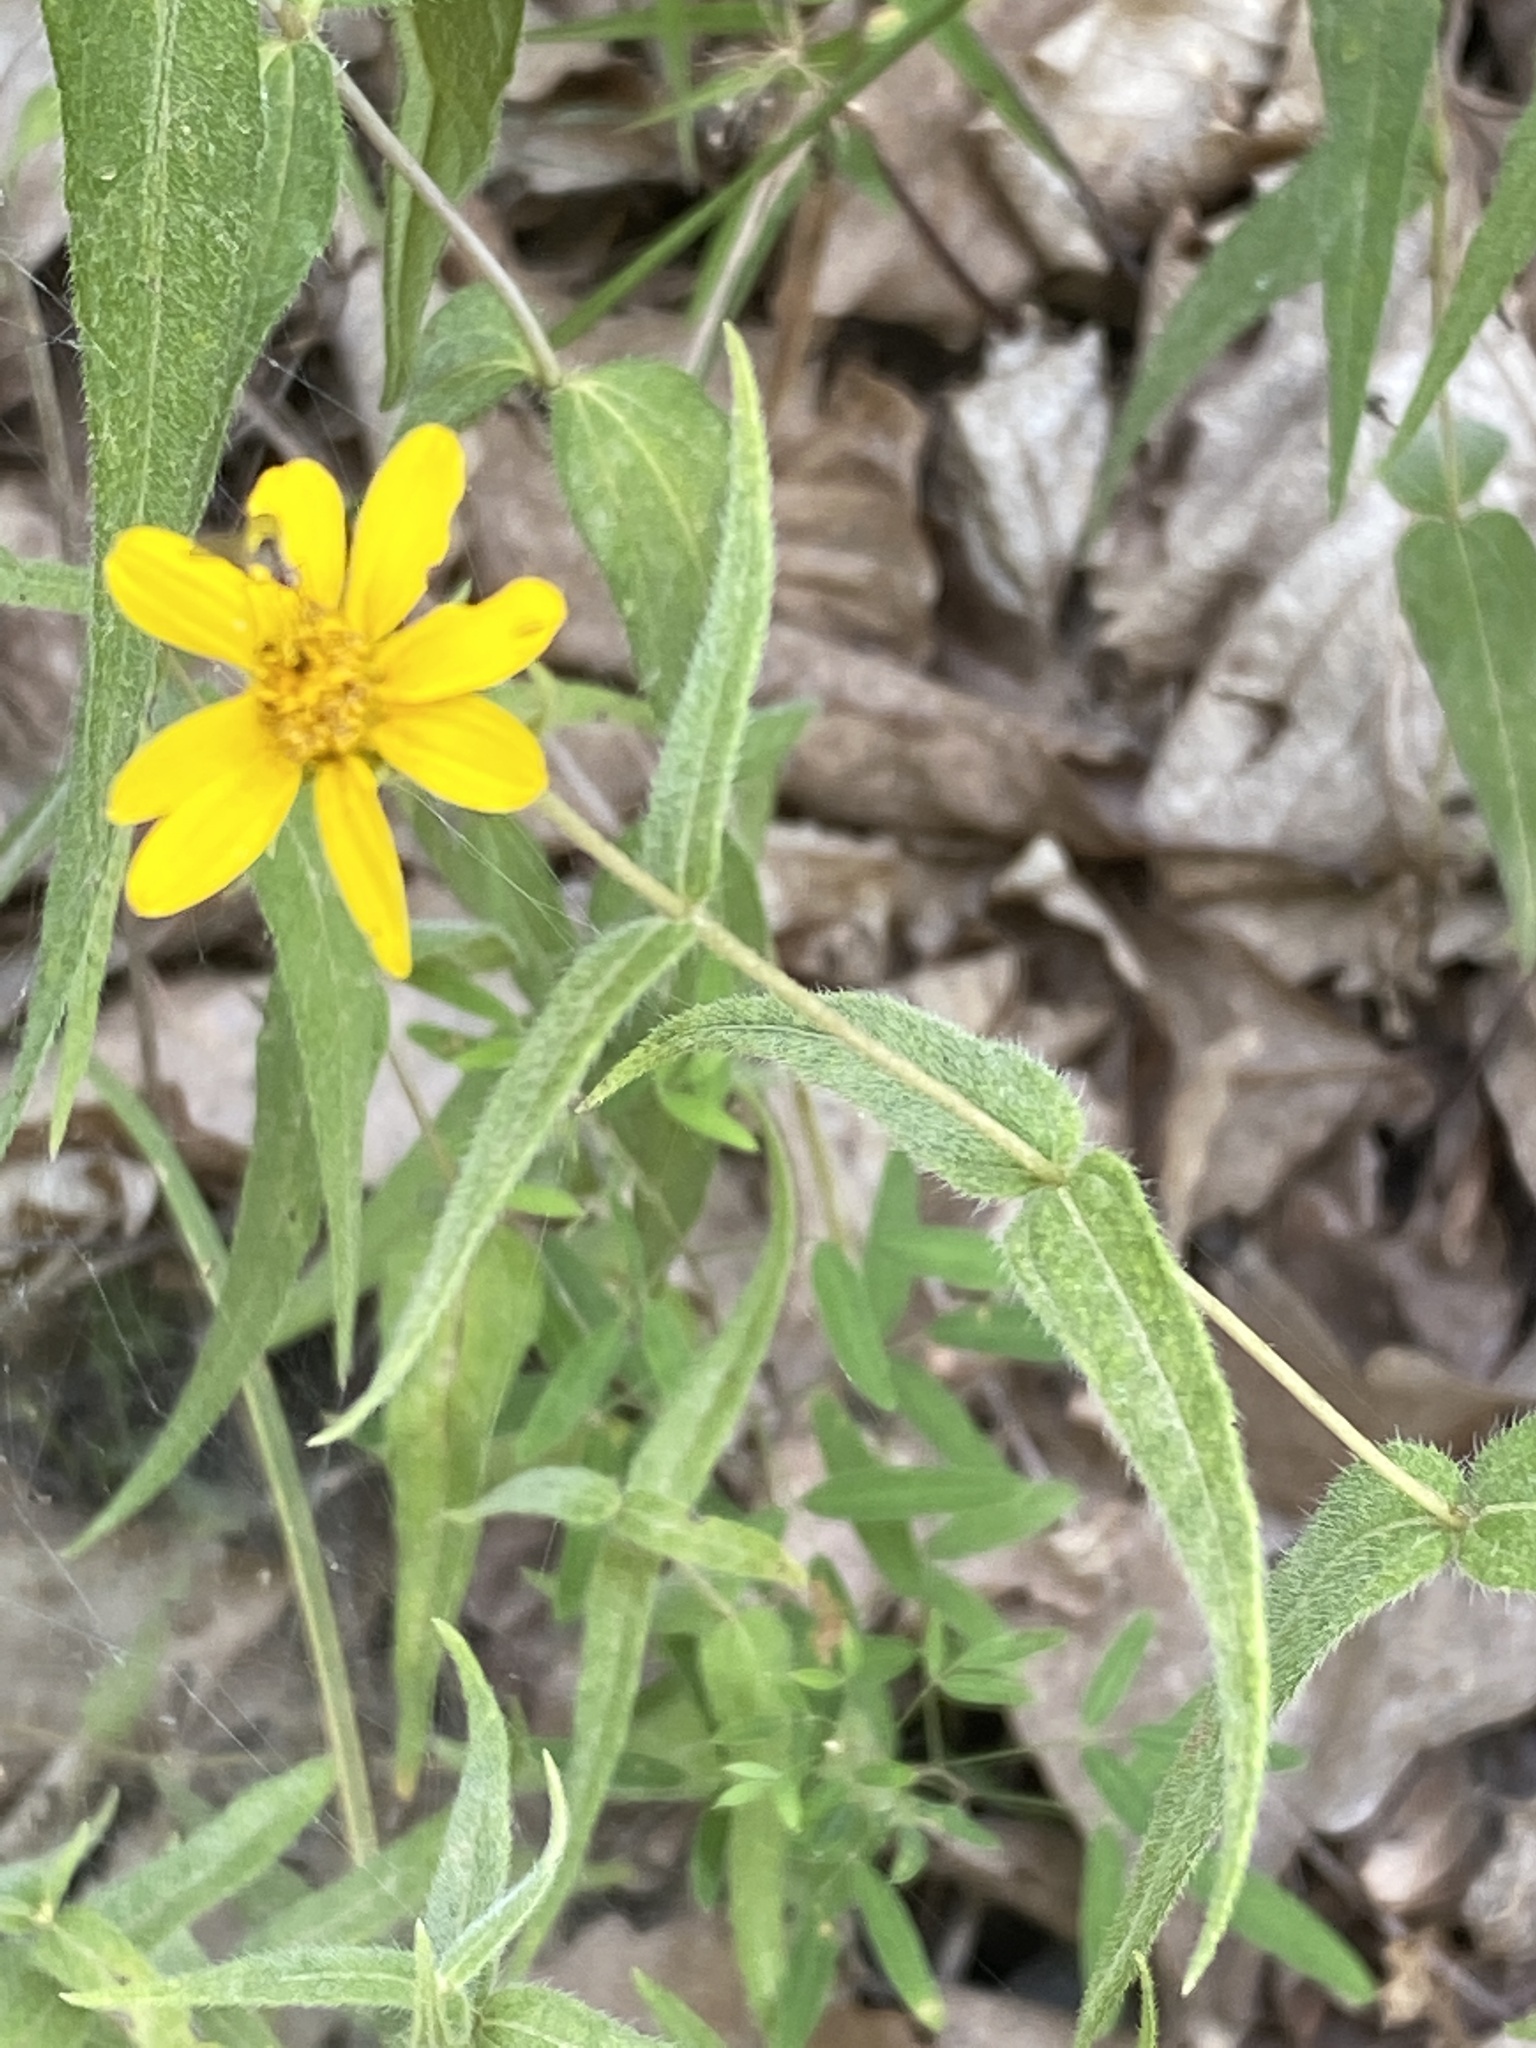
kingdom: Plantae
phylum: Tracheophyta
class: Magnoliopsida
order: Asterales
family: Asteraceae
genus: Helianthus
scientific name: Helianthus divaricatus
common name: Divergent sunflower
